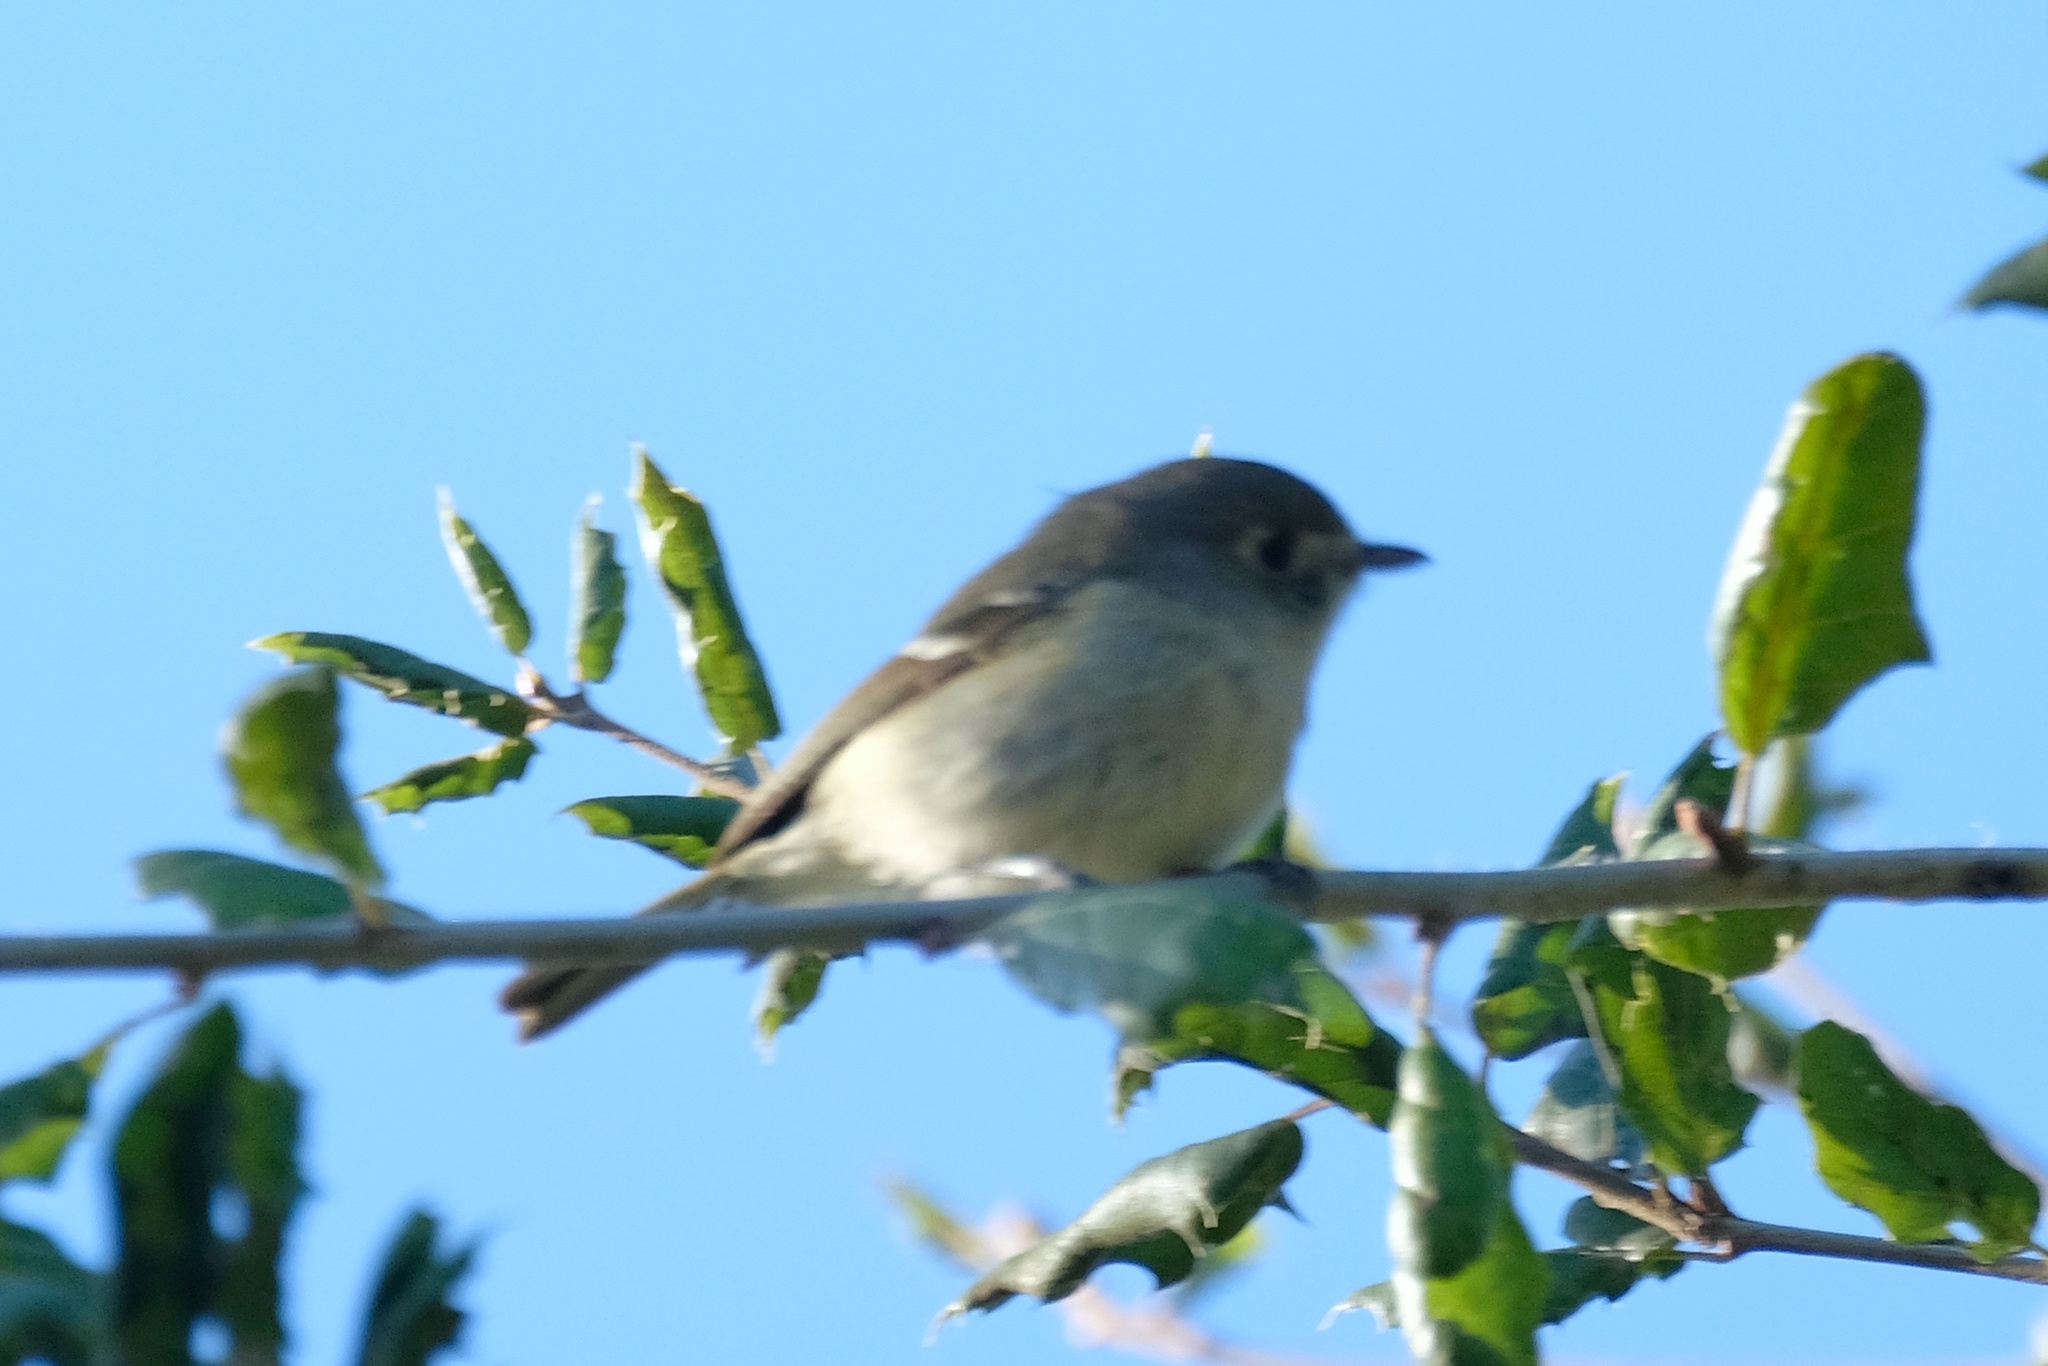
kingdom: Animalia
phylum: Chordata
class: Aves
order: Passeriformes
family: Vireonidae
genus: Vireo
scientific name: Vireo huttoni
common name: Hutton's vireo
